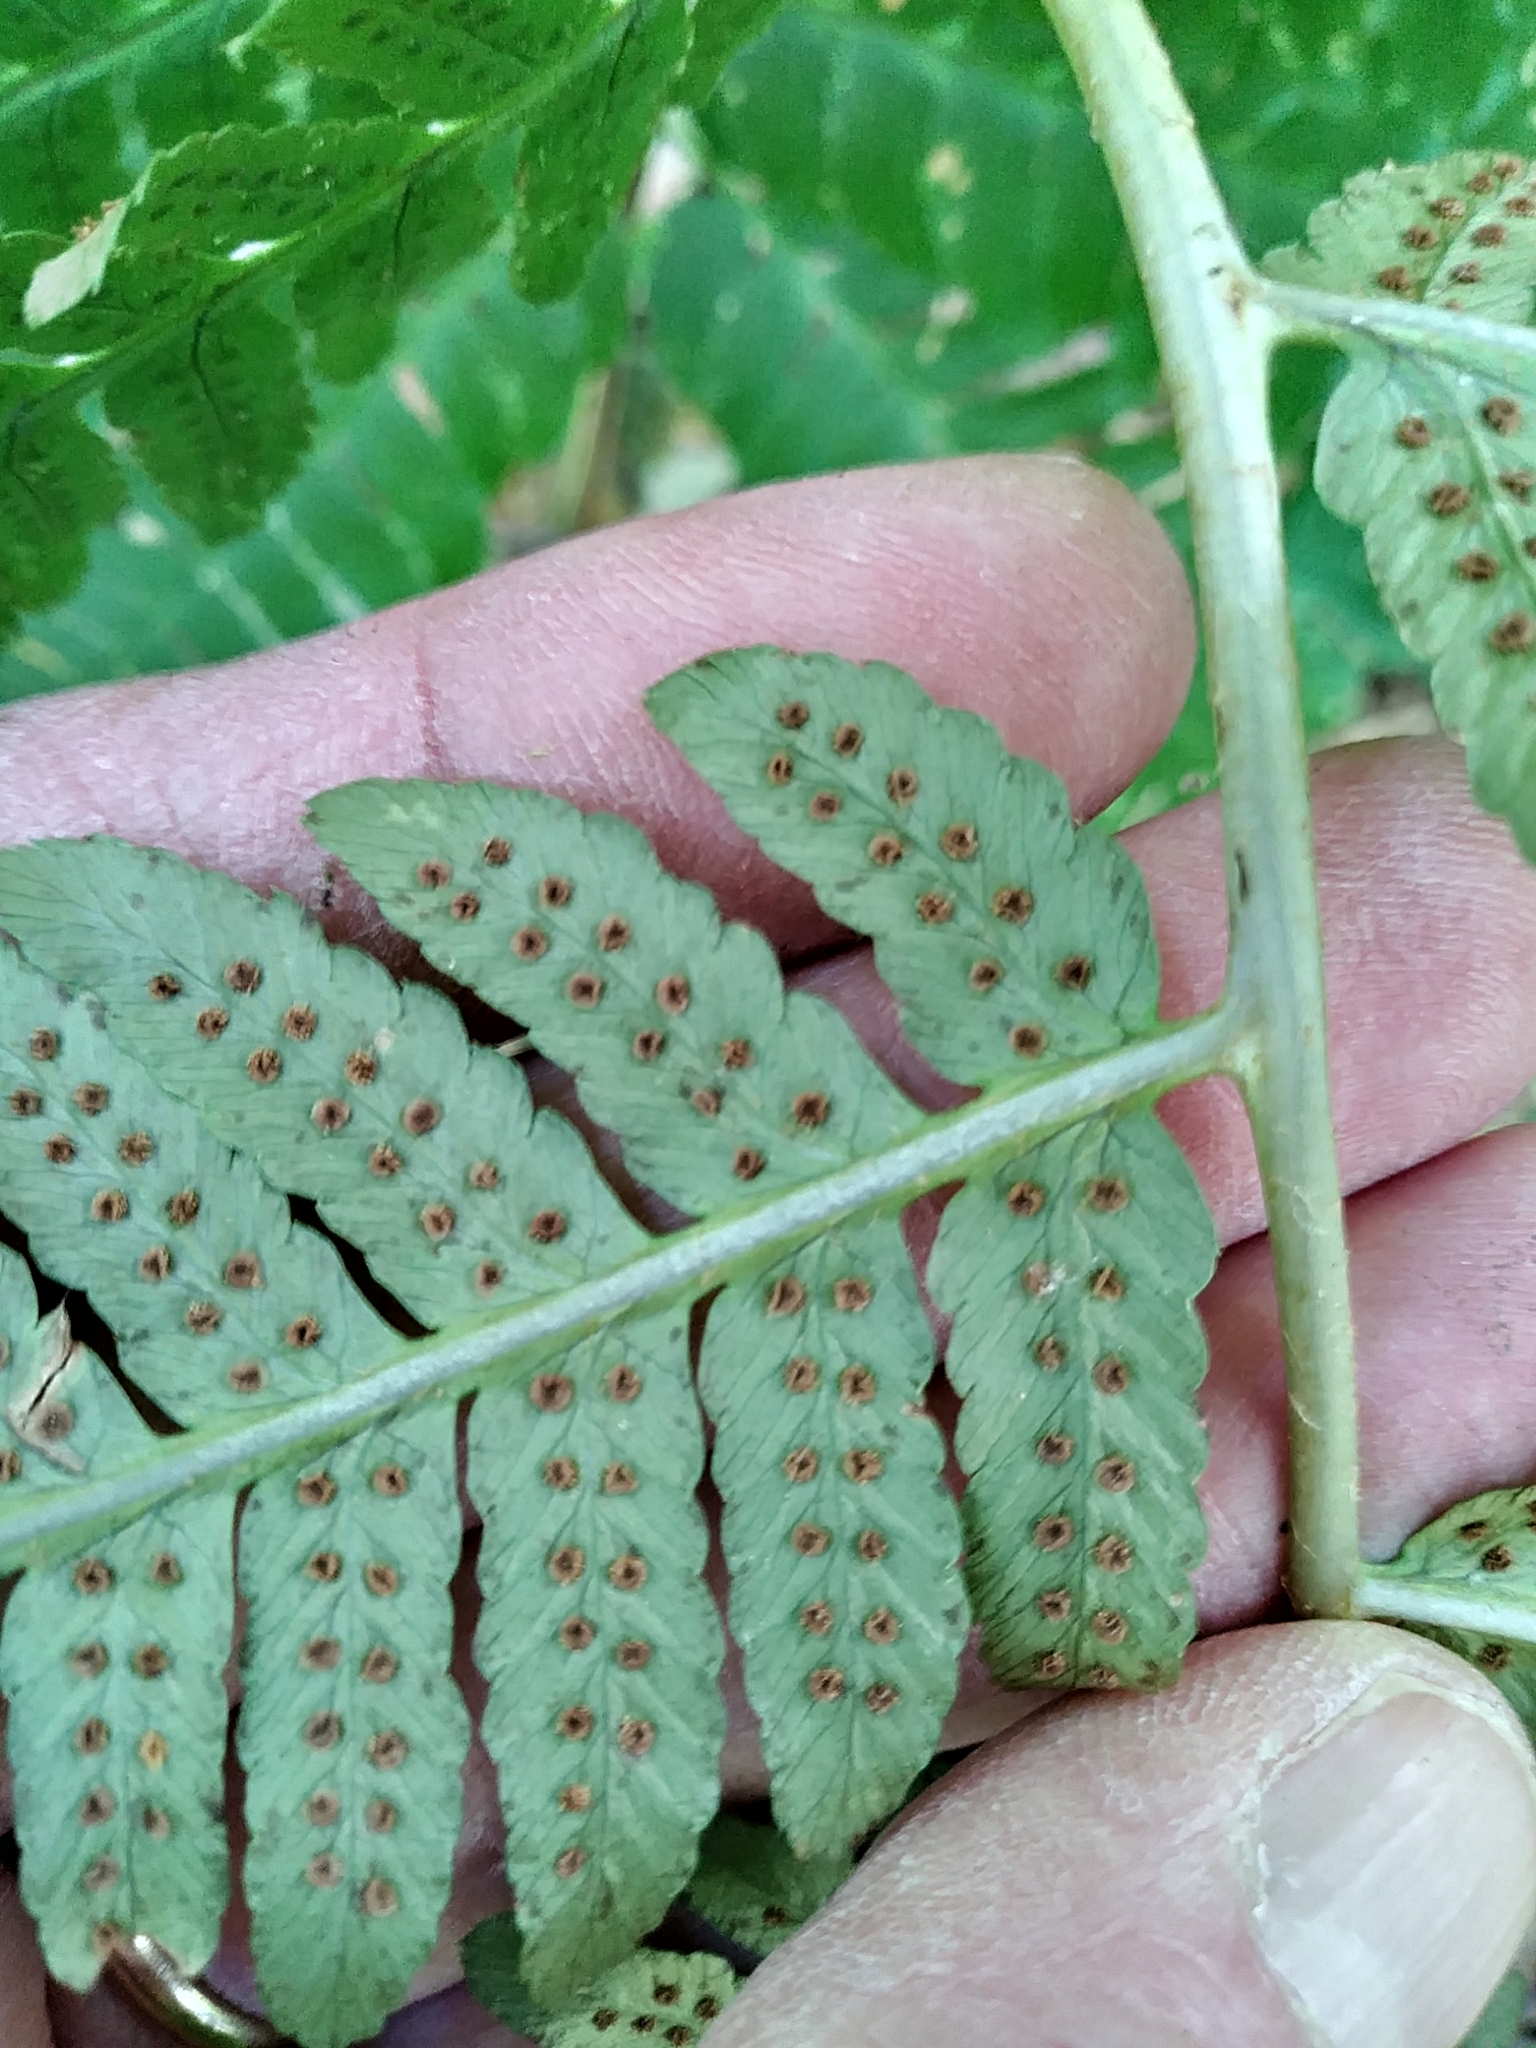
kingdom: Plantae
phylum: Tracheophyta
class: Polypodiopsida
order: Polypodiales
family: Dryopteridaceae
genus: Dryopteris
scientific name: Dryopteris goldieana
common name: Goldie's fern
